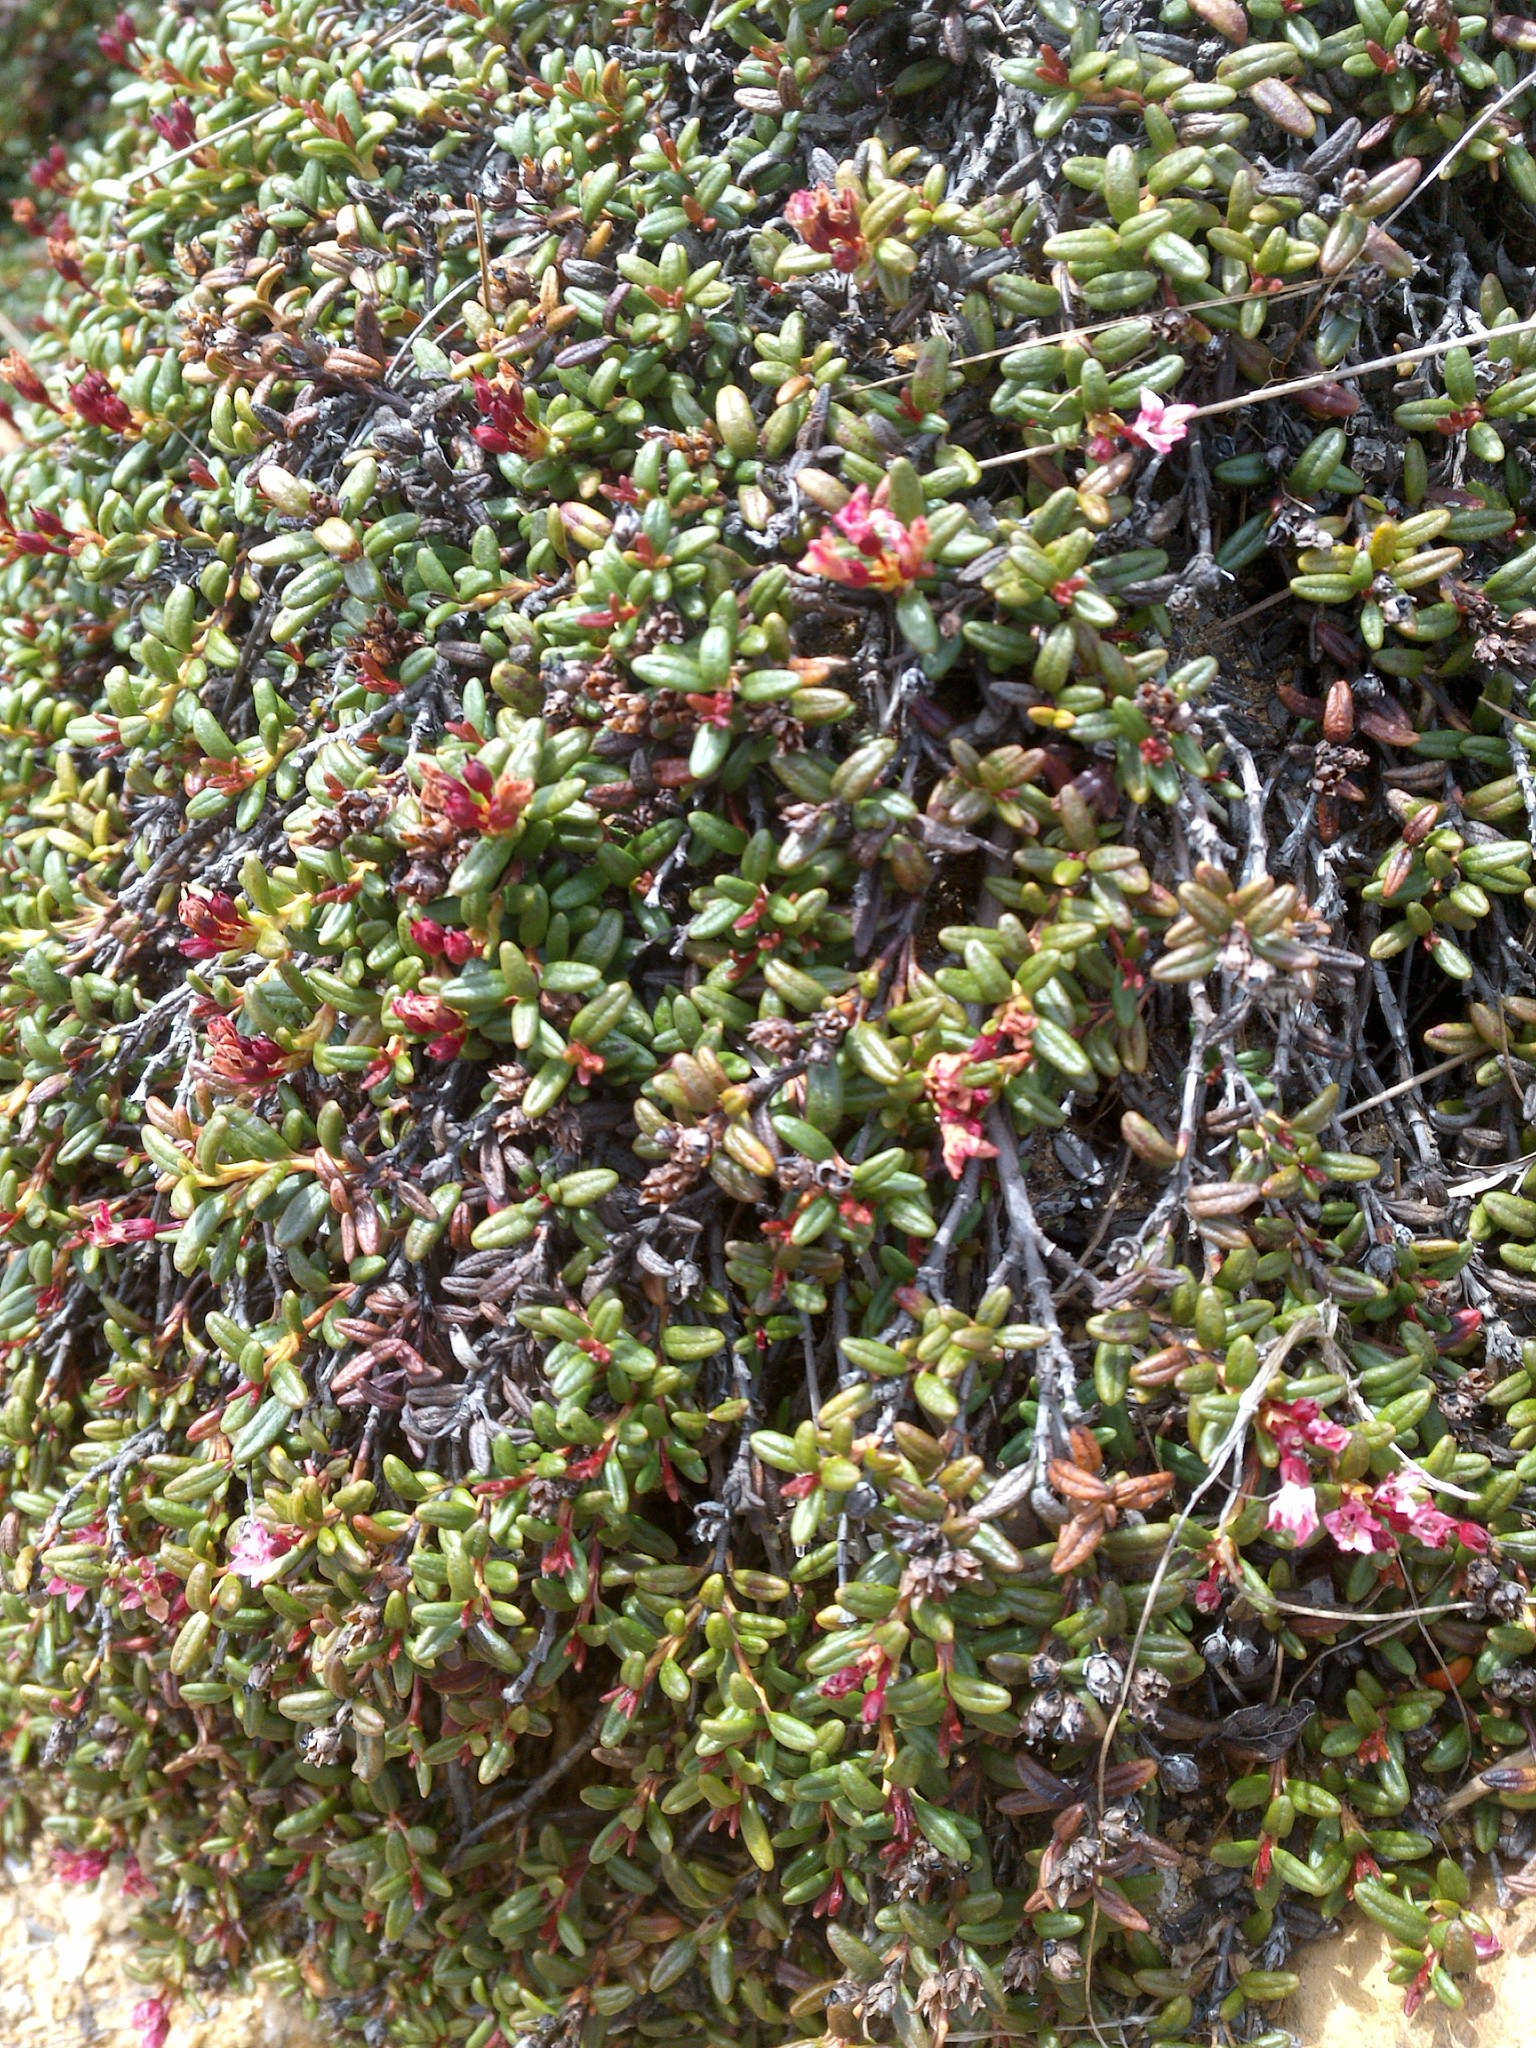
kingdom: Plantae
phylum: Tracheophyta
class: Magnoliopsida
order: Ericales
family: Ericaceae
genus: Kalmia
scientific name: Kalmia procumbens
